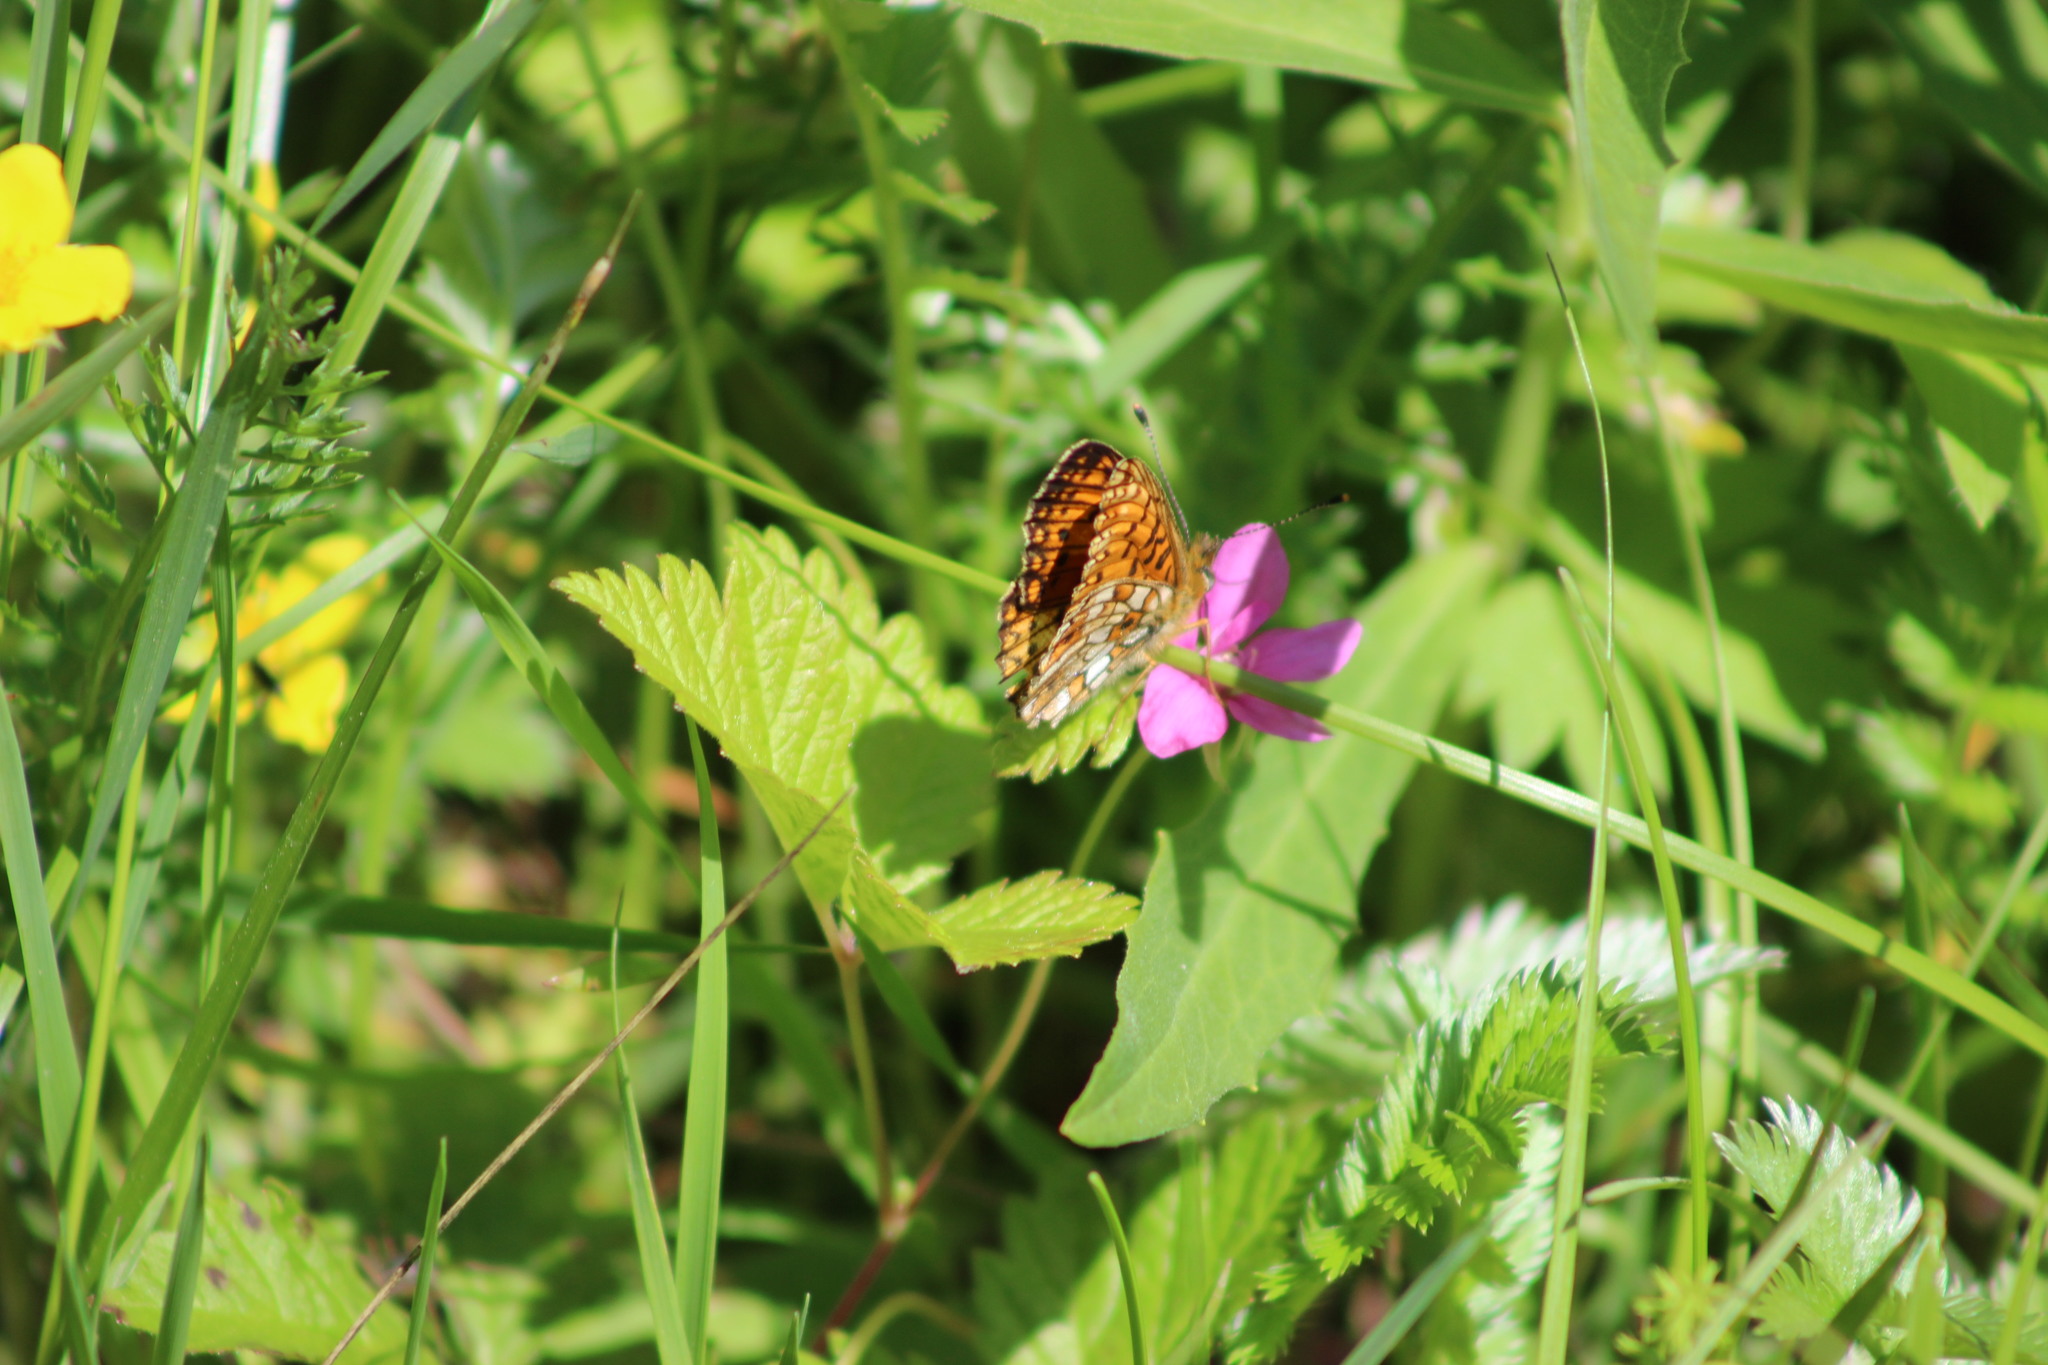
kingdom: Animalia
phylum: Arthropoda
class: Insecta
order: Lepidoptera
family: Nymphalidae
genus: Boloria
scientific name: Boloria selene
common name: Small pearl-bordered fritillary
